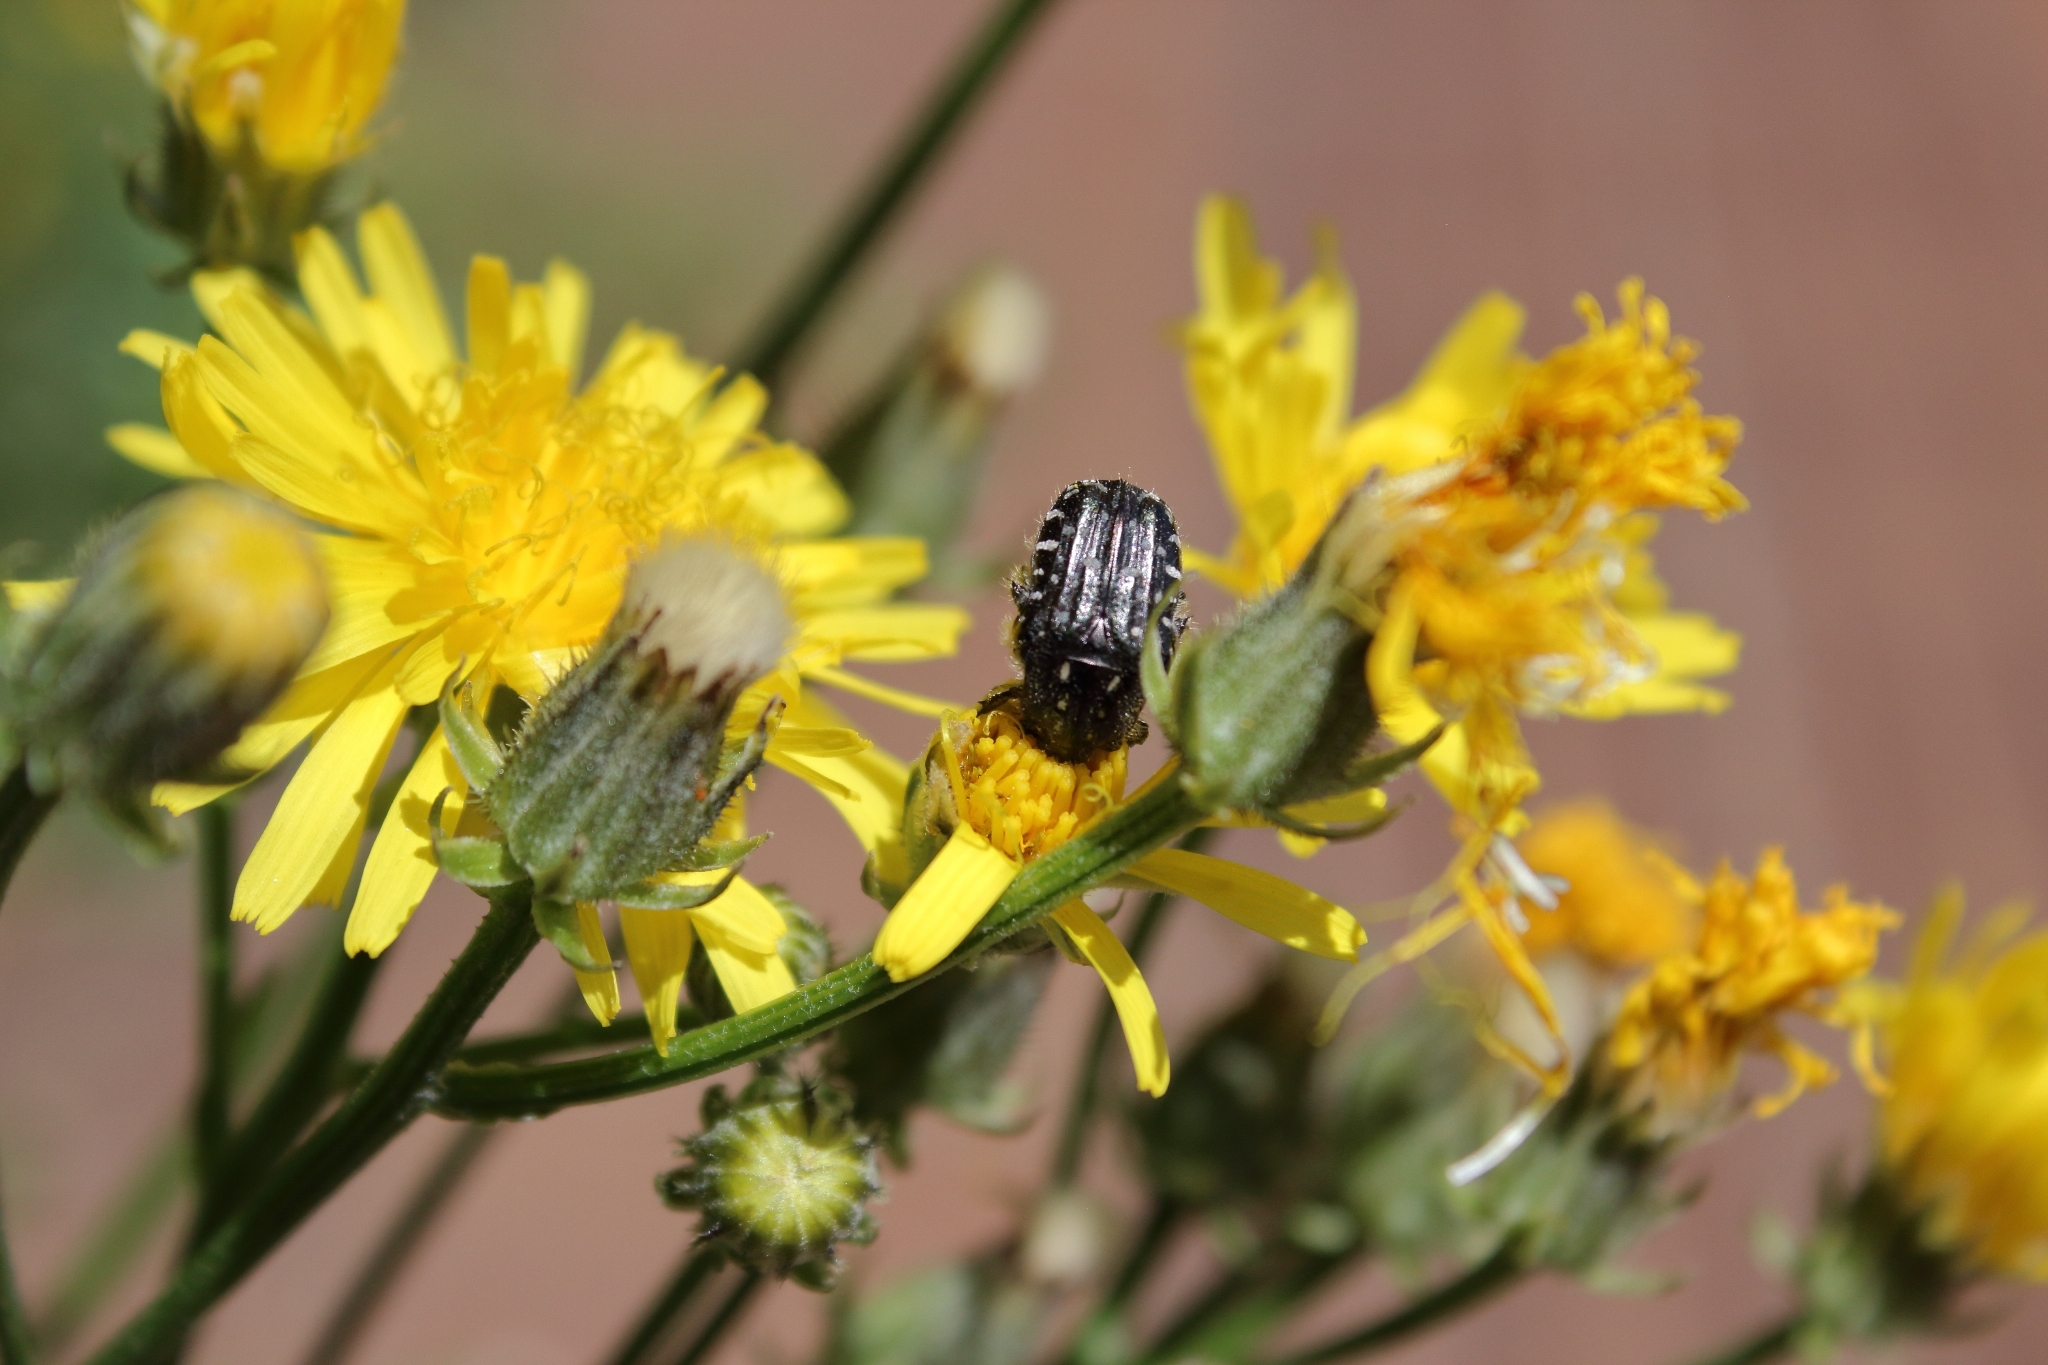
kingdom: Animalia
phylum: Arthropoda
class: Insecta
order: Coleoptera
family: Scarabaeidae
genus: Oxythyrea
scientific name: Oxythyrea funesta
